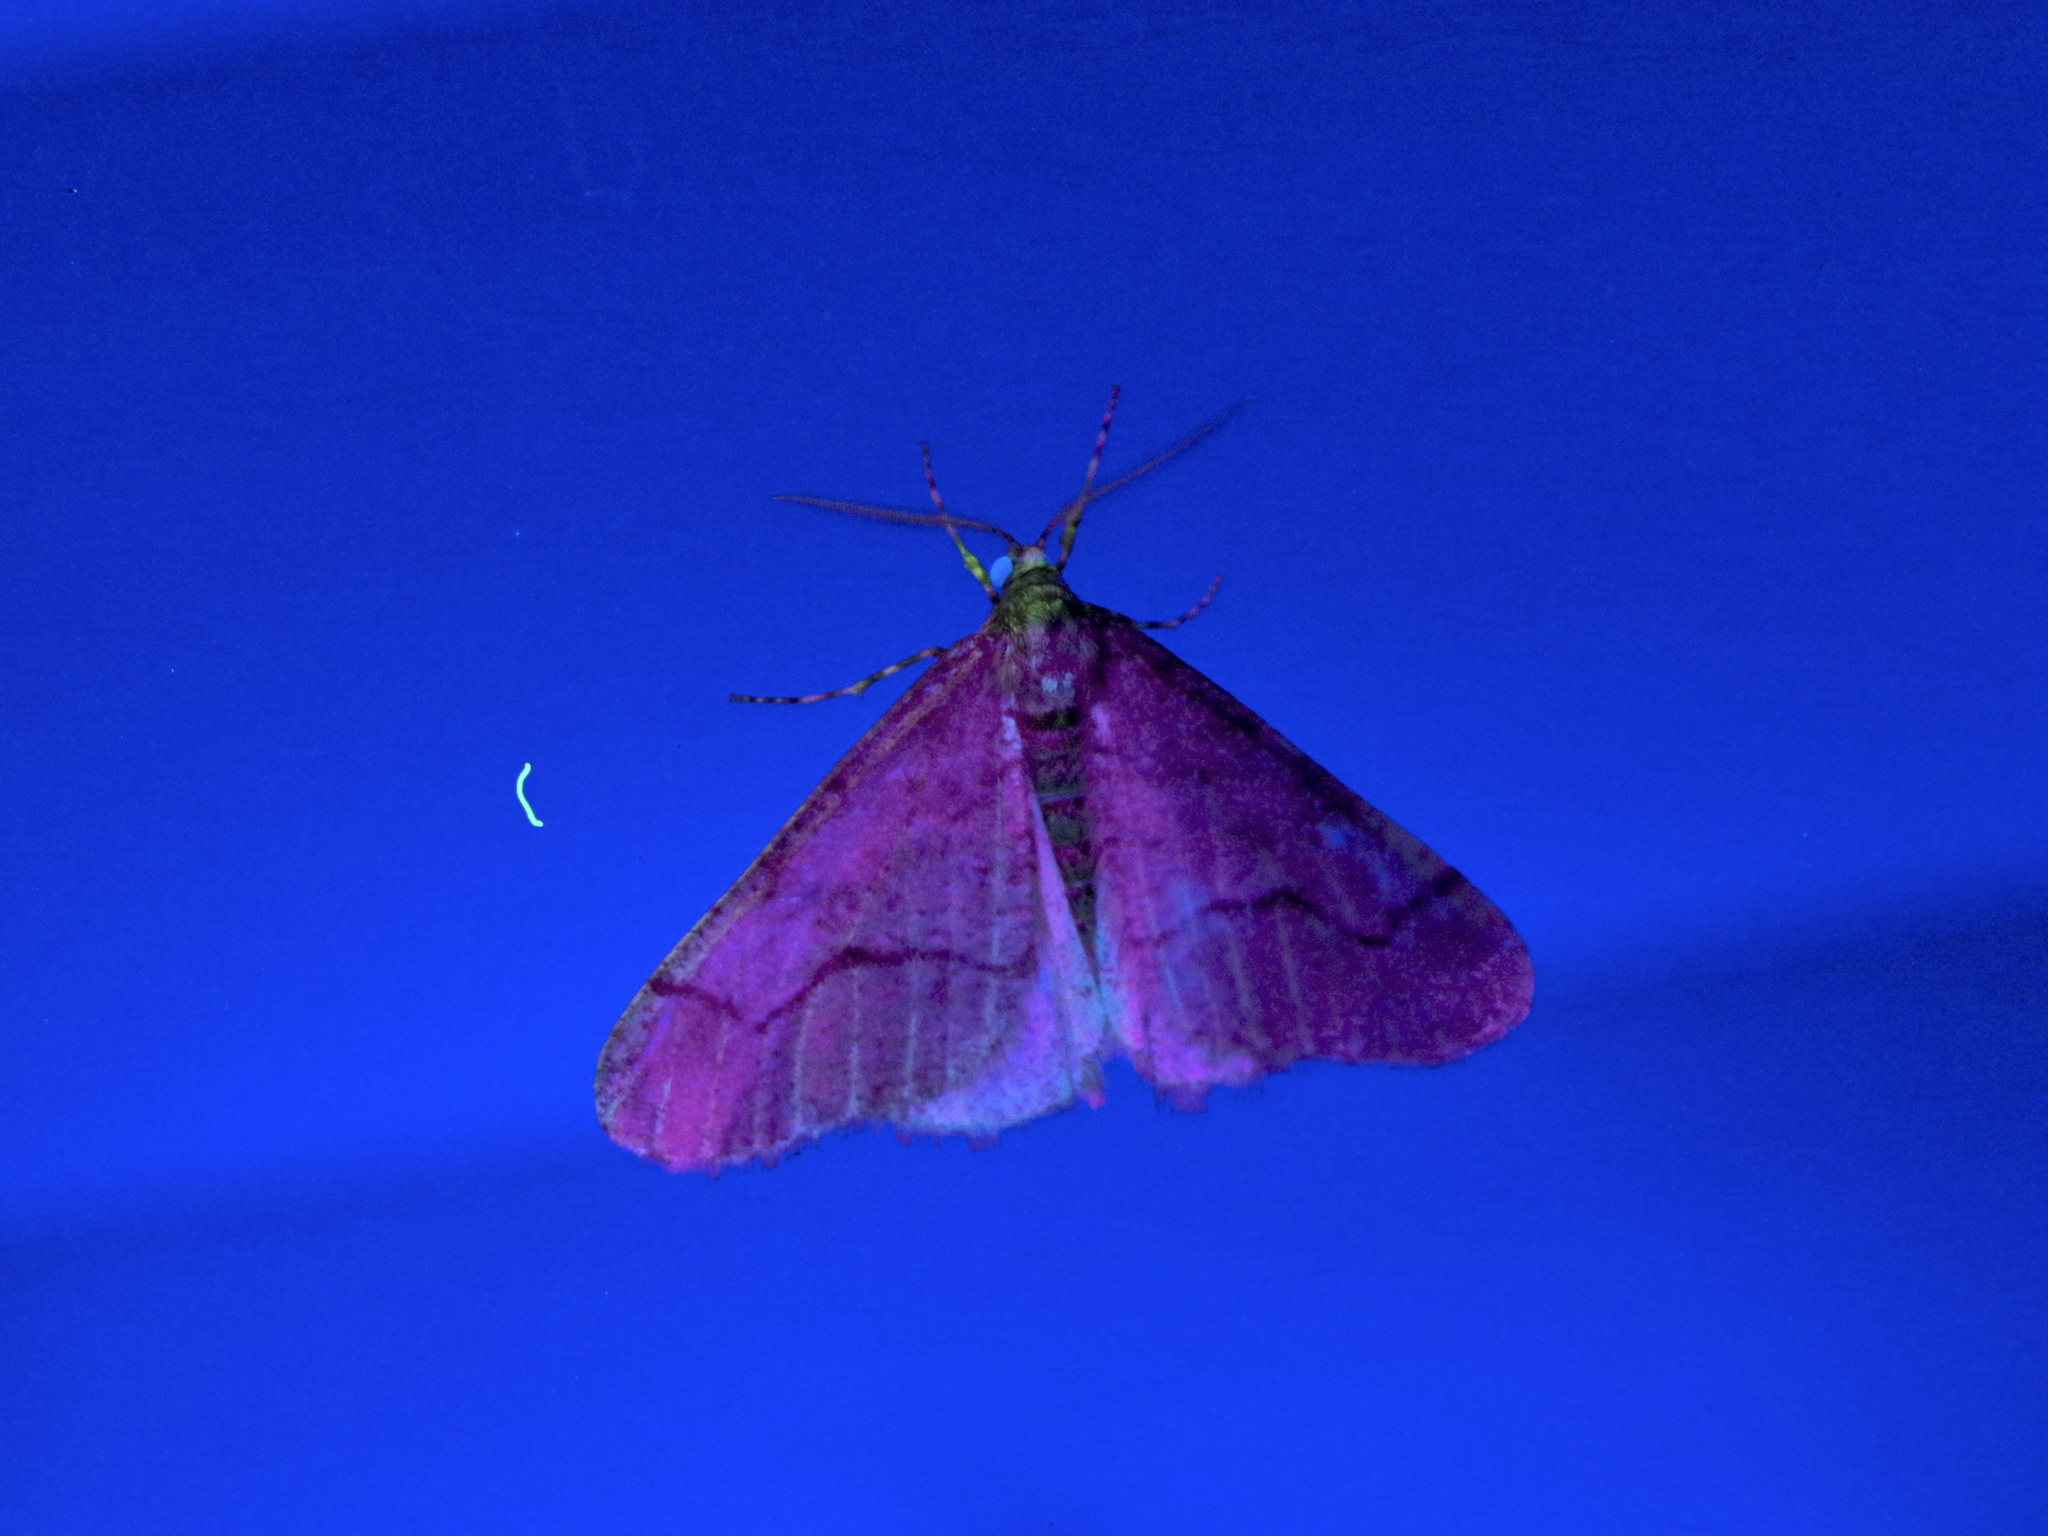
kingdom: Animalia
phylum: Arthropoda
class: Insecta
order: Lepidoptera
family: Geometridae
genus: Erannis
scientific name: Erannis tiliaria
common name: Linden looper
